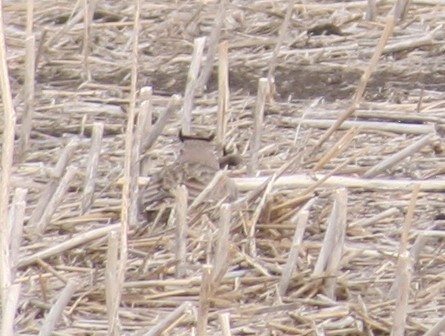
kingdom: Animalia
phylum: Chordata
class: Aves
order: Passeriformes
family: Alaudidae
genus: Eremophila
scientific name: Eremophila alpestris
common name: Horned lark
